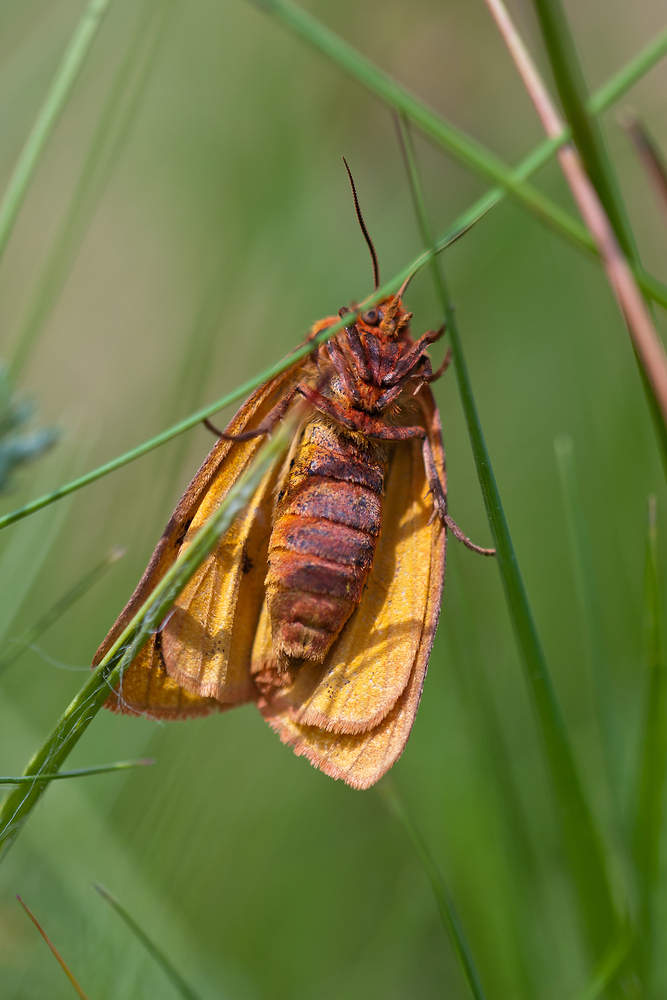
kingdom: Animalia
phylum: Arthropoda
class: Insecta
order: Lepidoptera
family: Erebidae
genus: Diacrisia
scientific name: Diacrisia sannio
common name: Clouded buff
